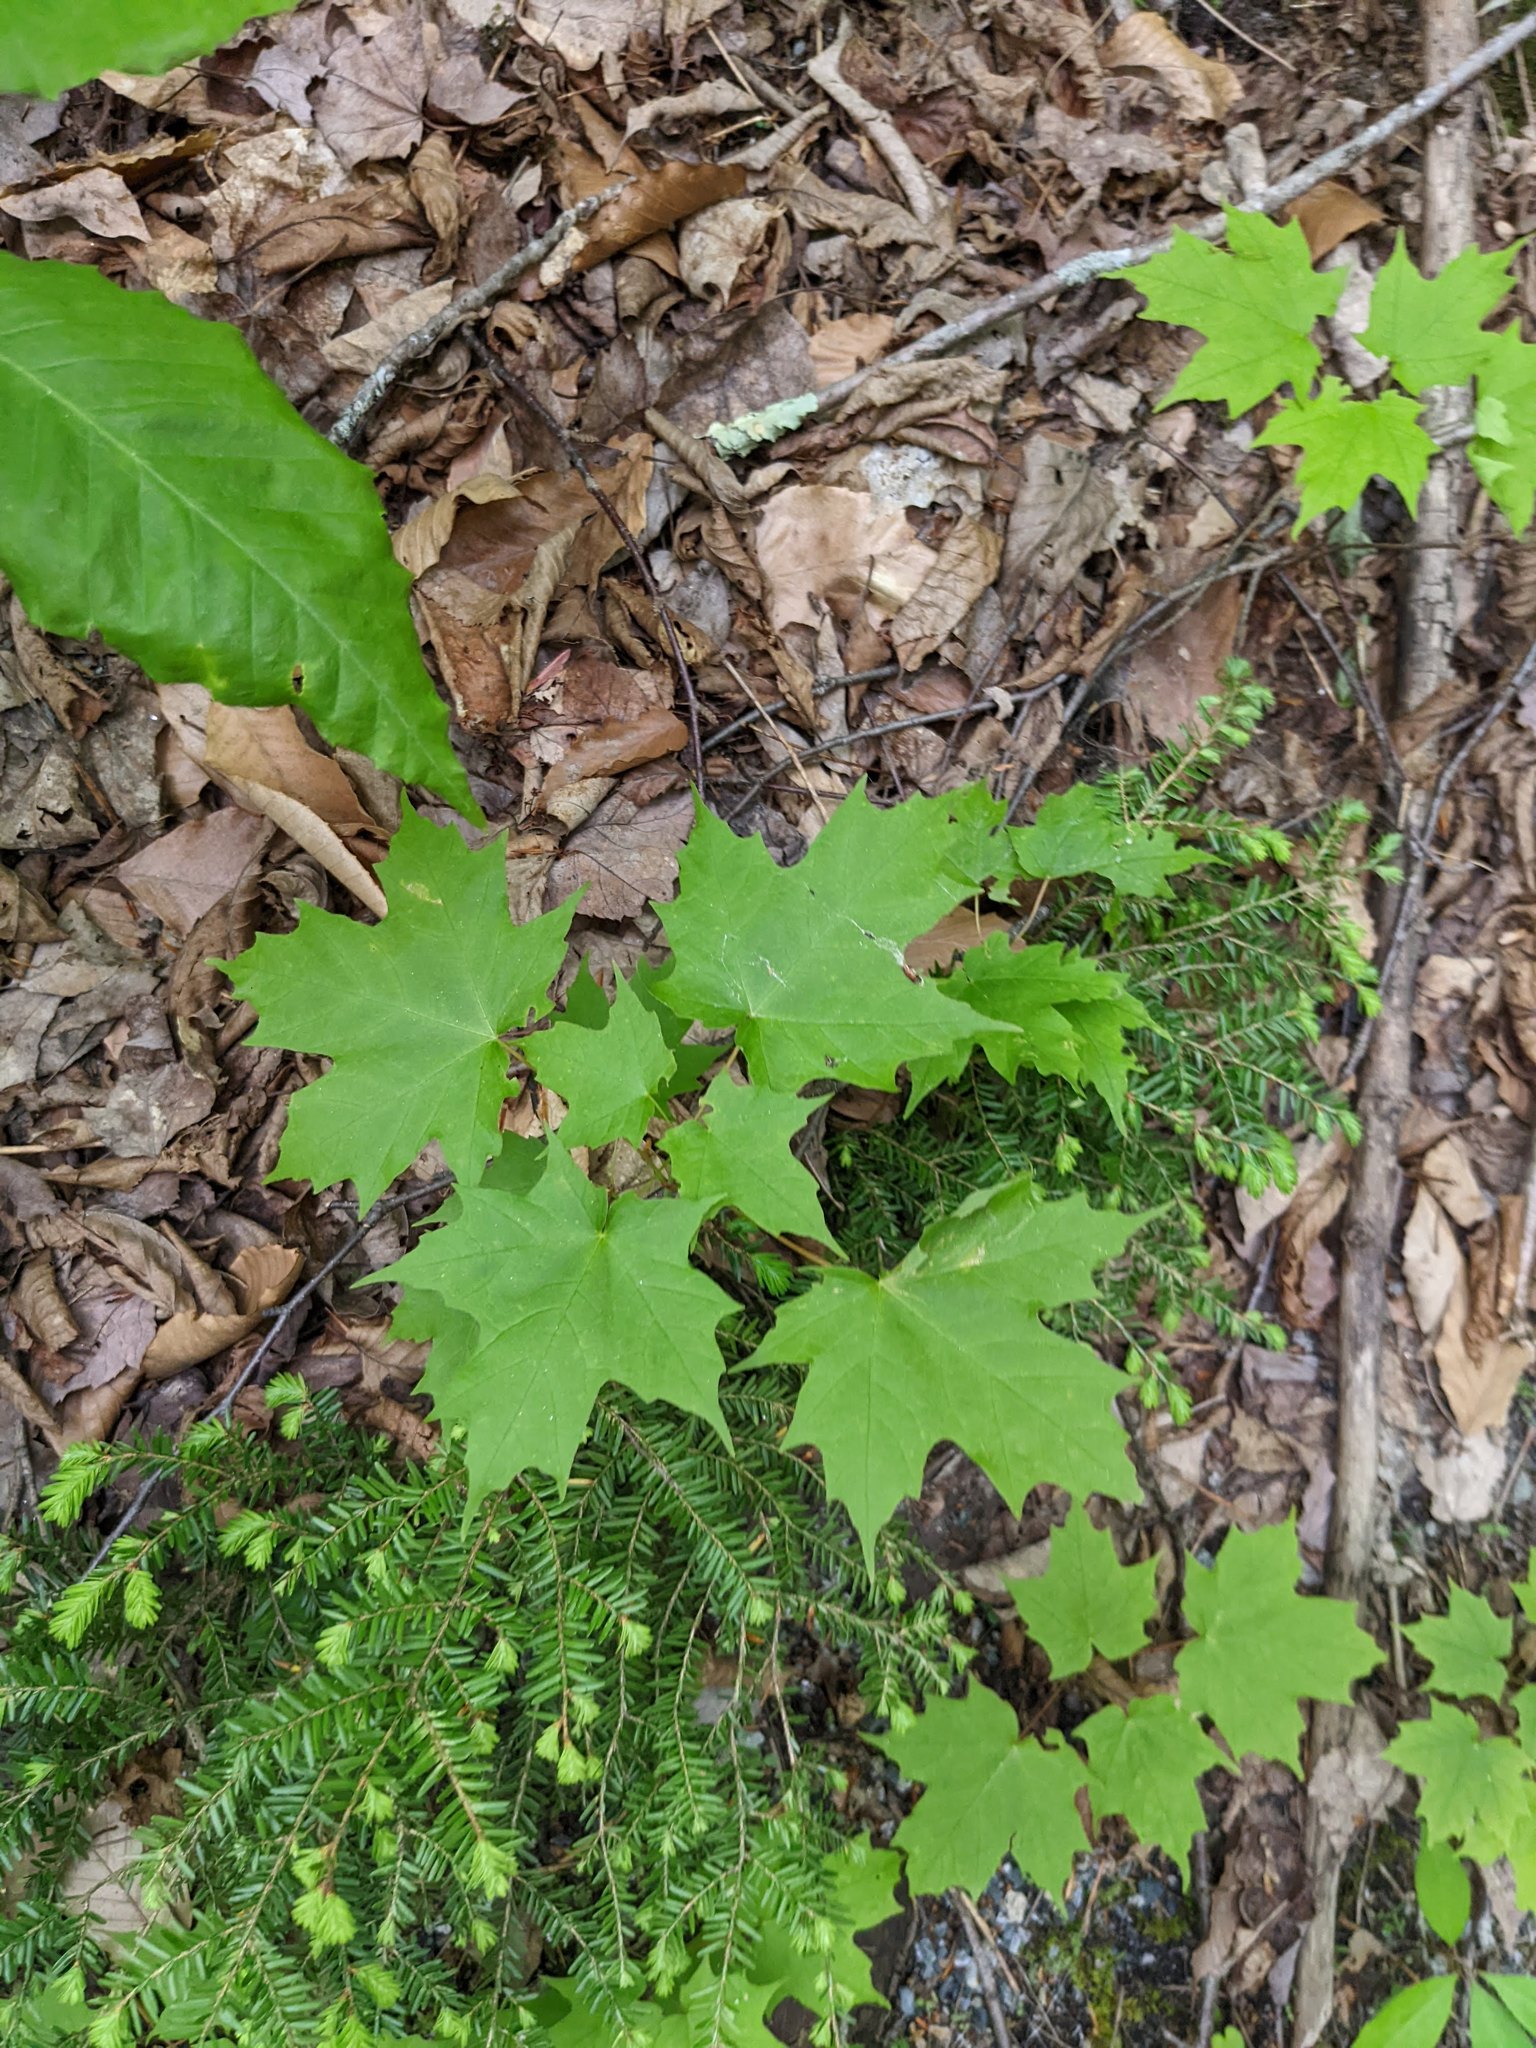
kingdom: Plantae
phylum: Tracheophyta
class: Magnoliopsida
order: Sapindales
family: Sapindaceae
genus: Acer
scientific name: Acer saccharum
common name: Sugar maple
